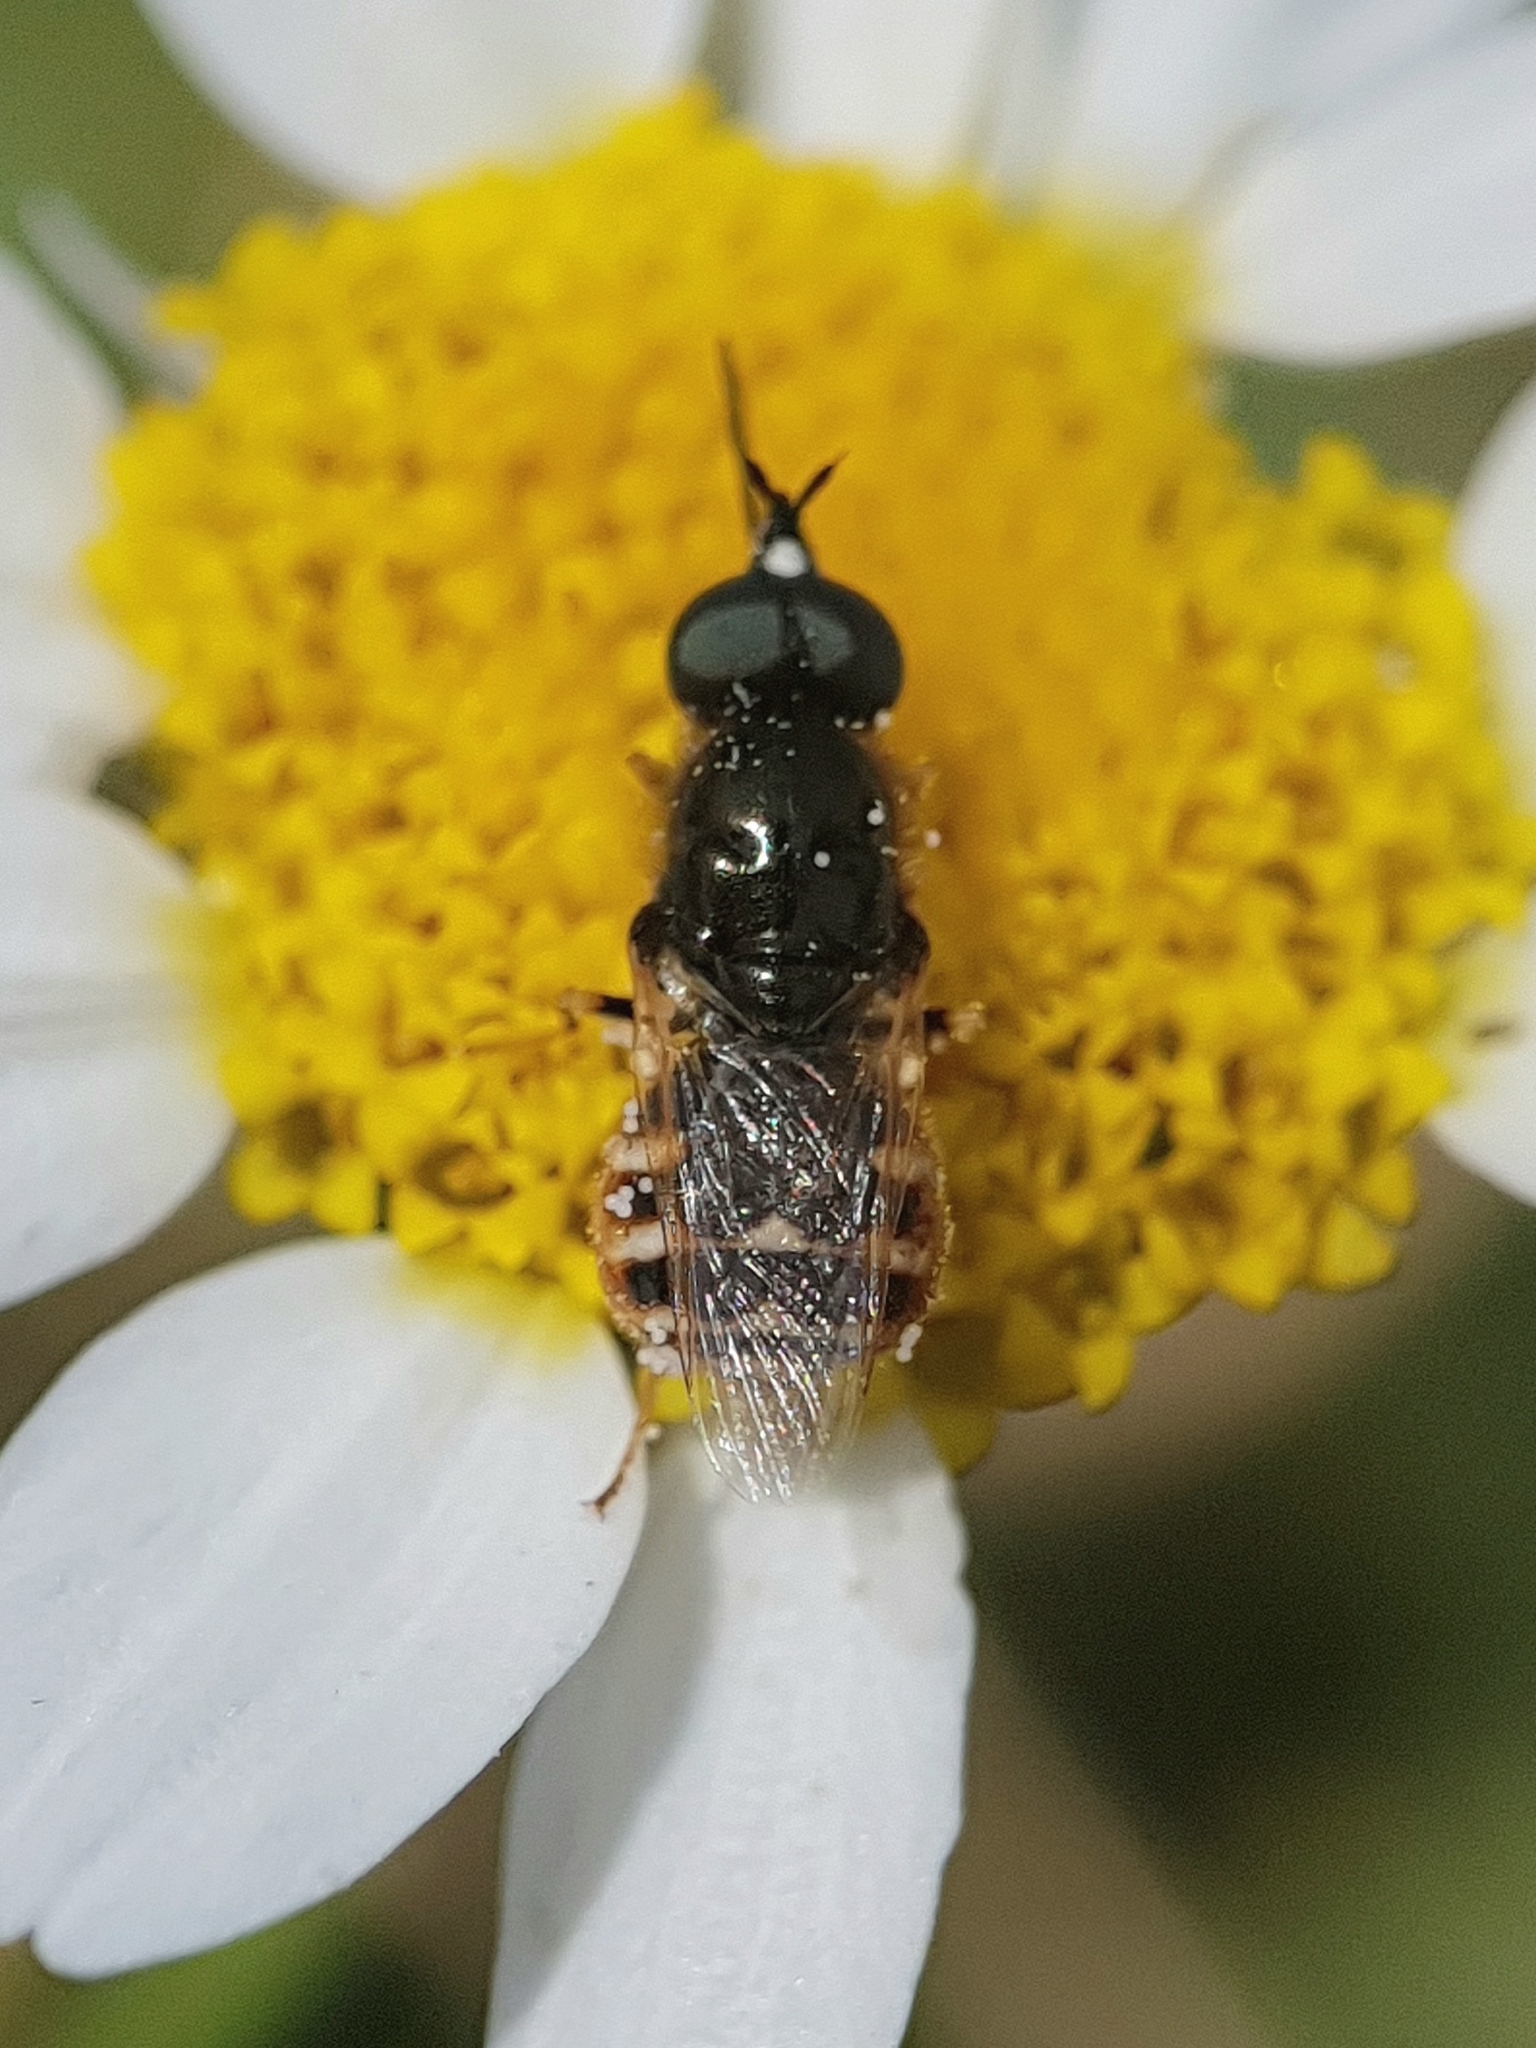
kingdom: Animalia
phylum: Arthropoda
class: Insecta
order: Diptera
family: Stratiomyidae
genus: Nemotelus
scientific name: Nemotelus longirostris
